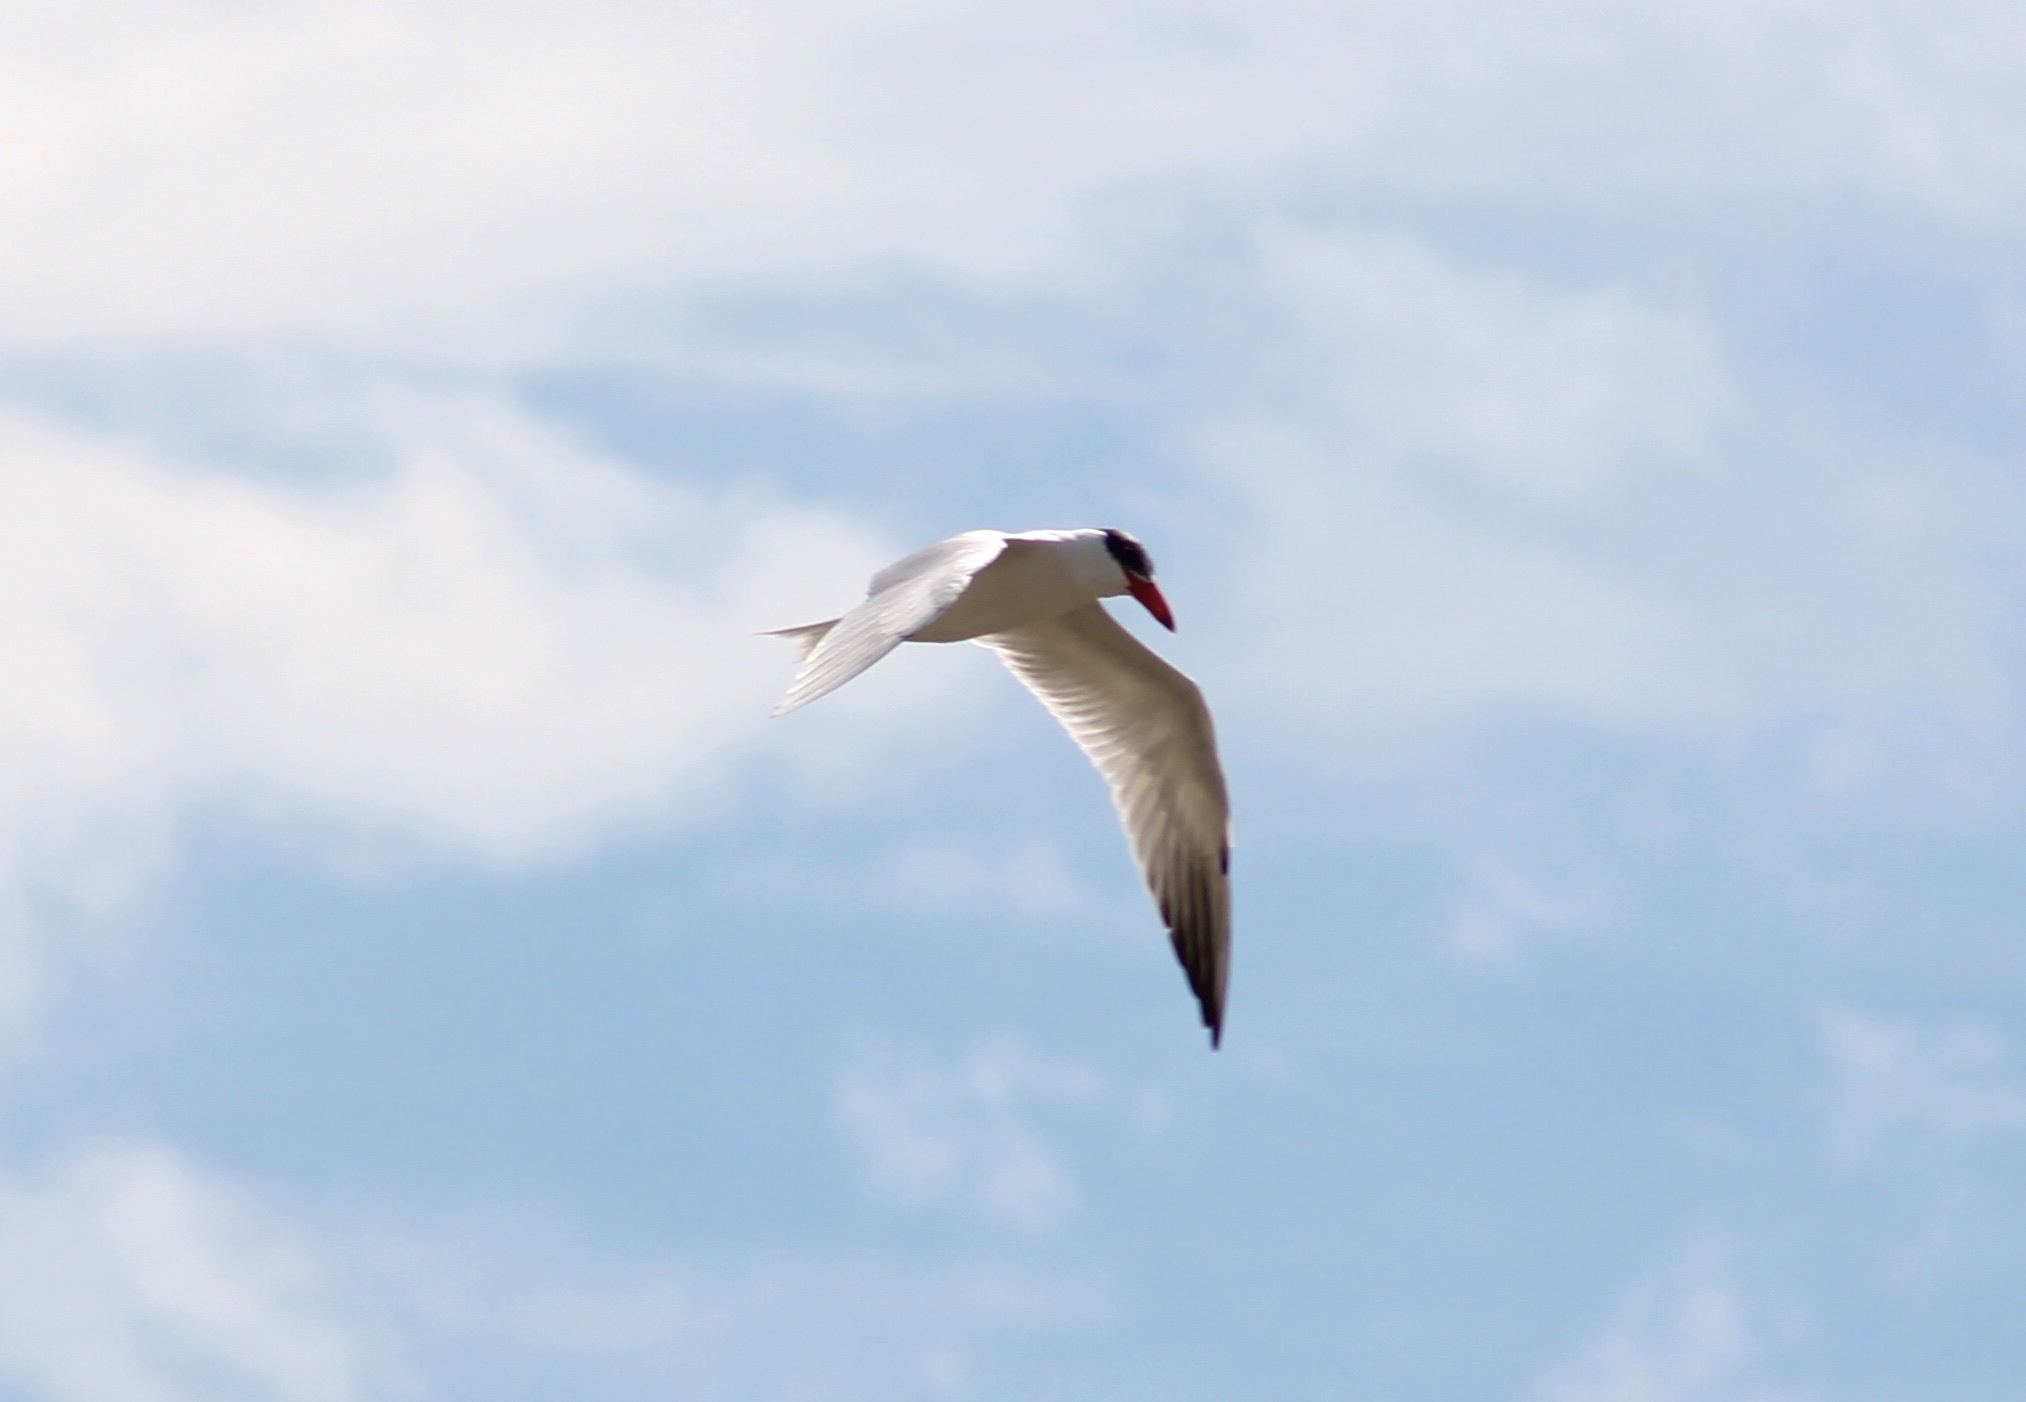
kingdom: Animalia
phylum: Chordata
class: Aves
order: Charadriiformes
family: Laridae
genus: Hydroprogne
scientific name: Hydroprogne caspia
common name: Caspian tern
